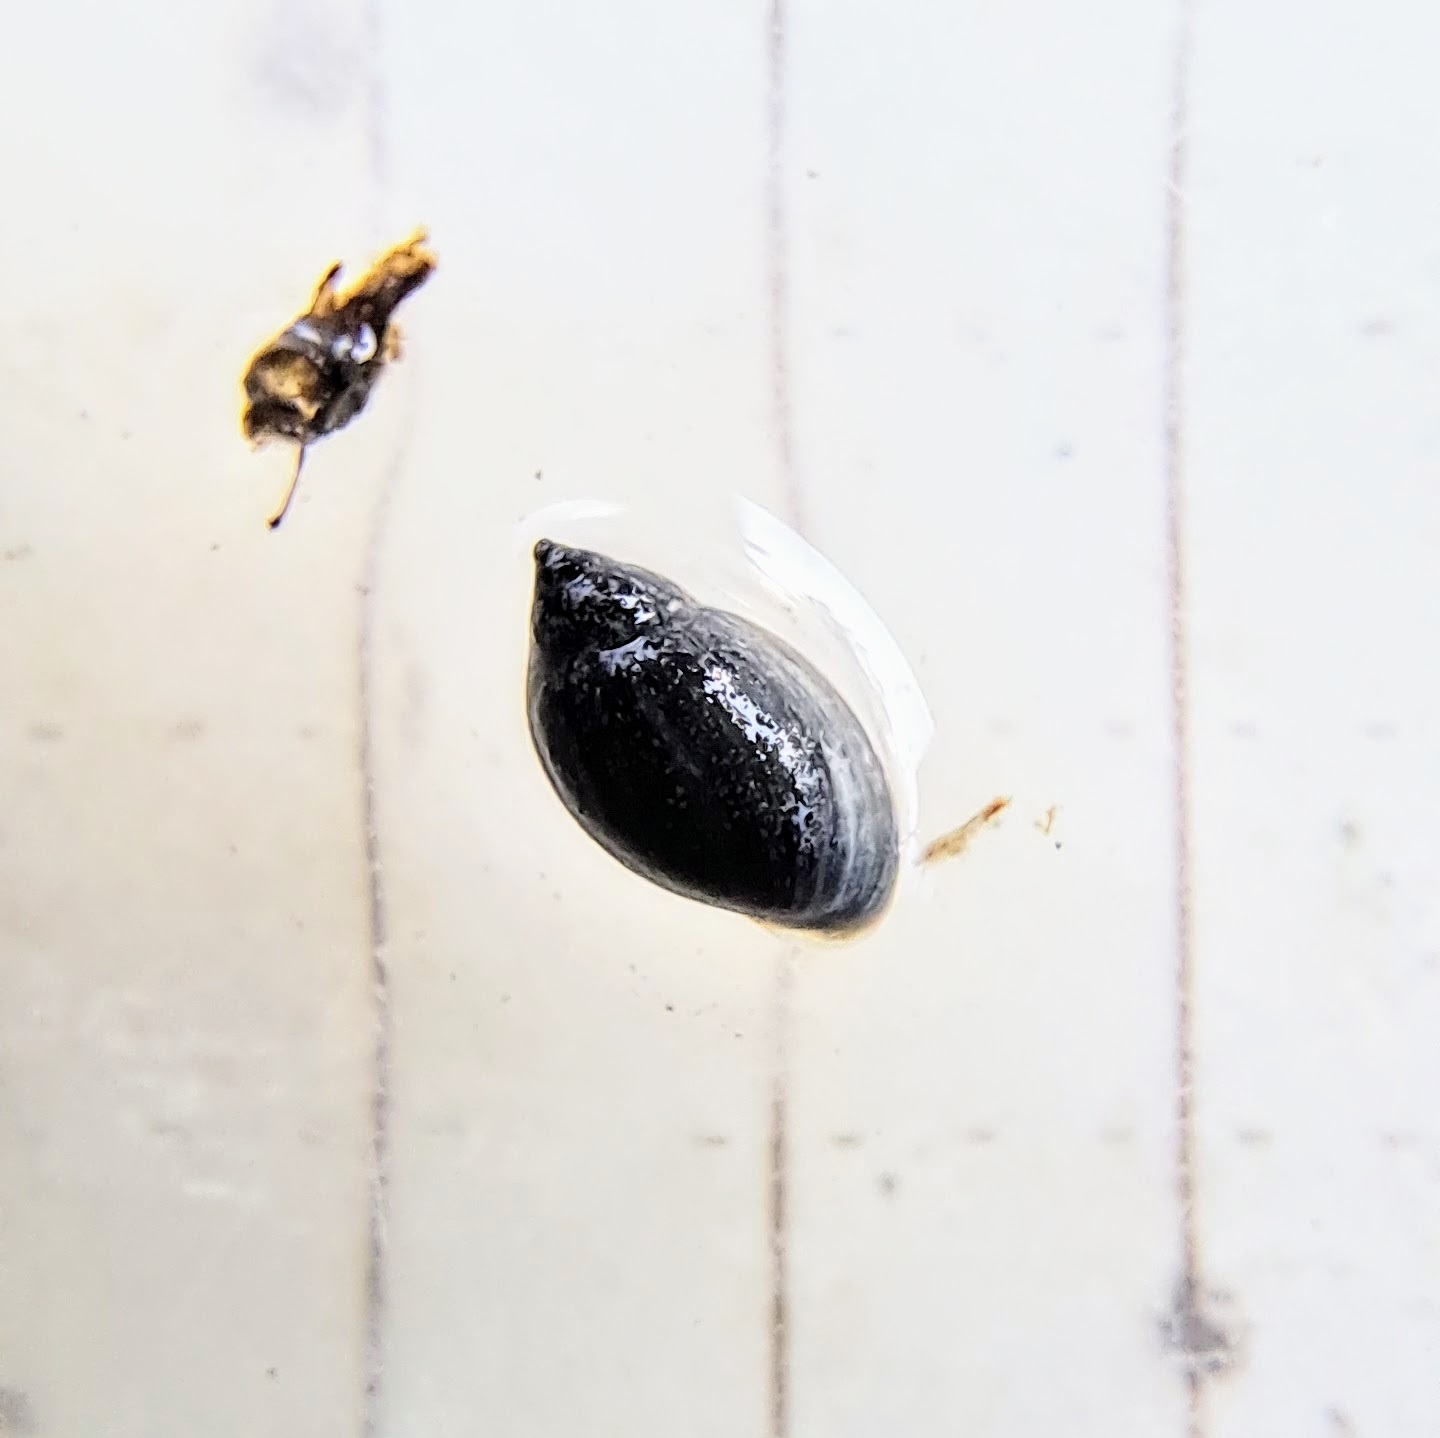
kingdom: Animalia
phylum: Mollusca
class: Gastropoda
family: Physidae
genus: Physella
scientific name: Physella
